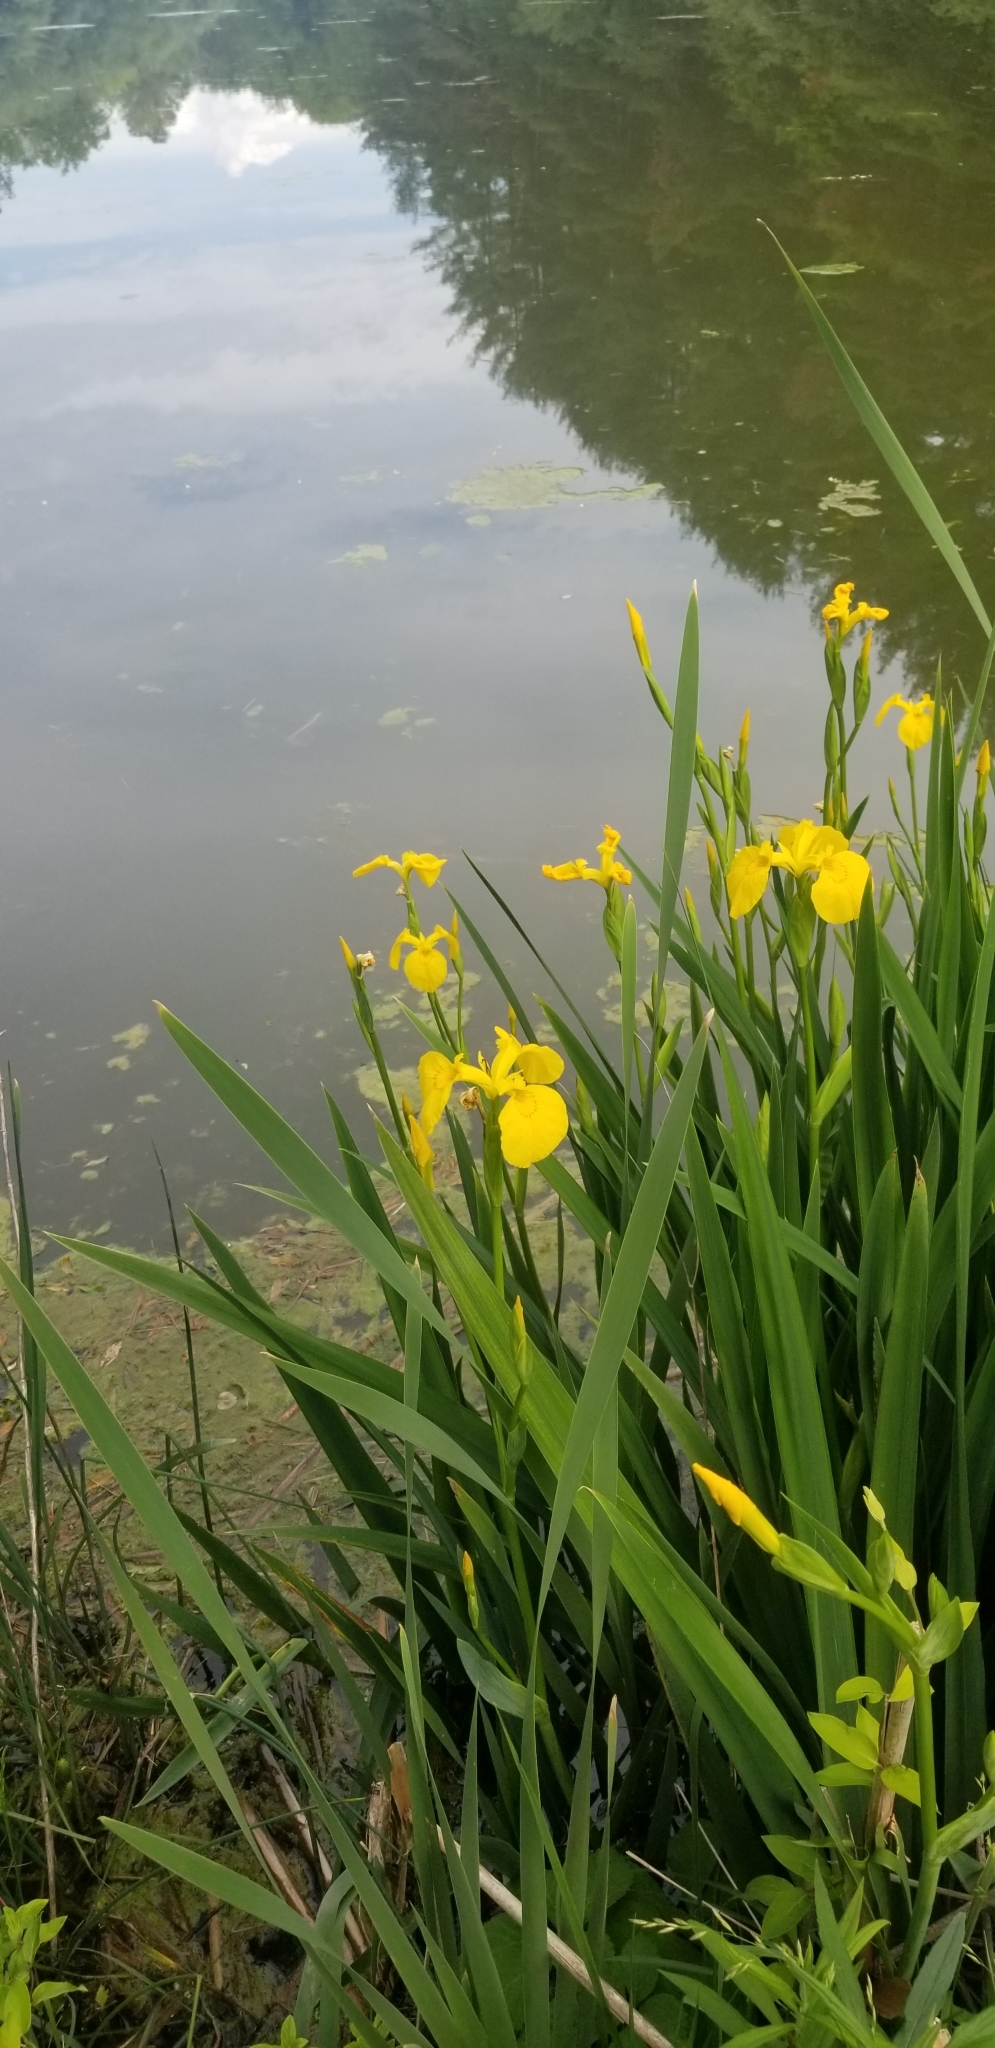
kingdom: Plantae
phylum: Tracheophyta
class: Liliopsida
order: Asparagales
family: Iridaceae
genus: Iris
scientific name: Iris pseudacorus
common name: Yellow flag
